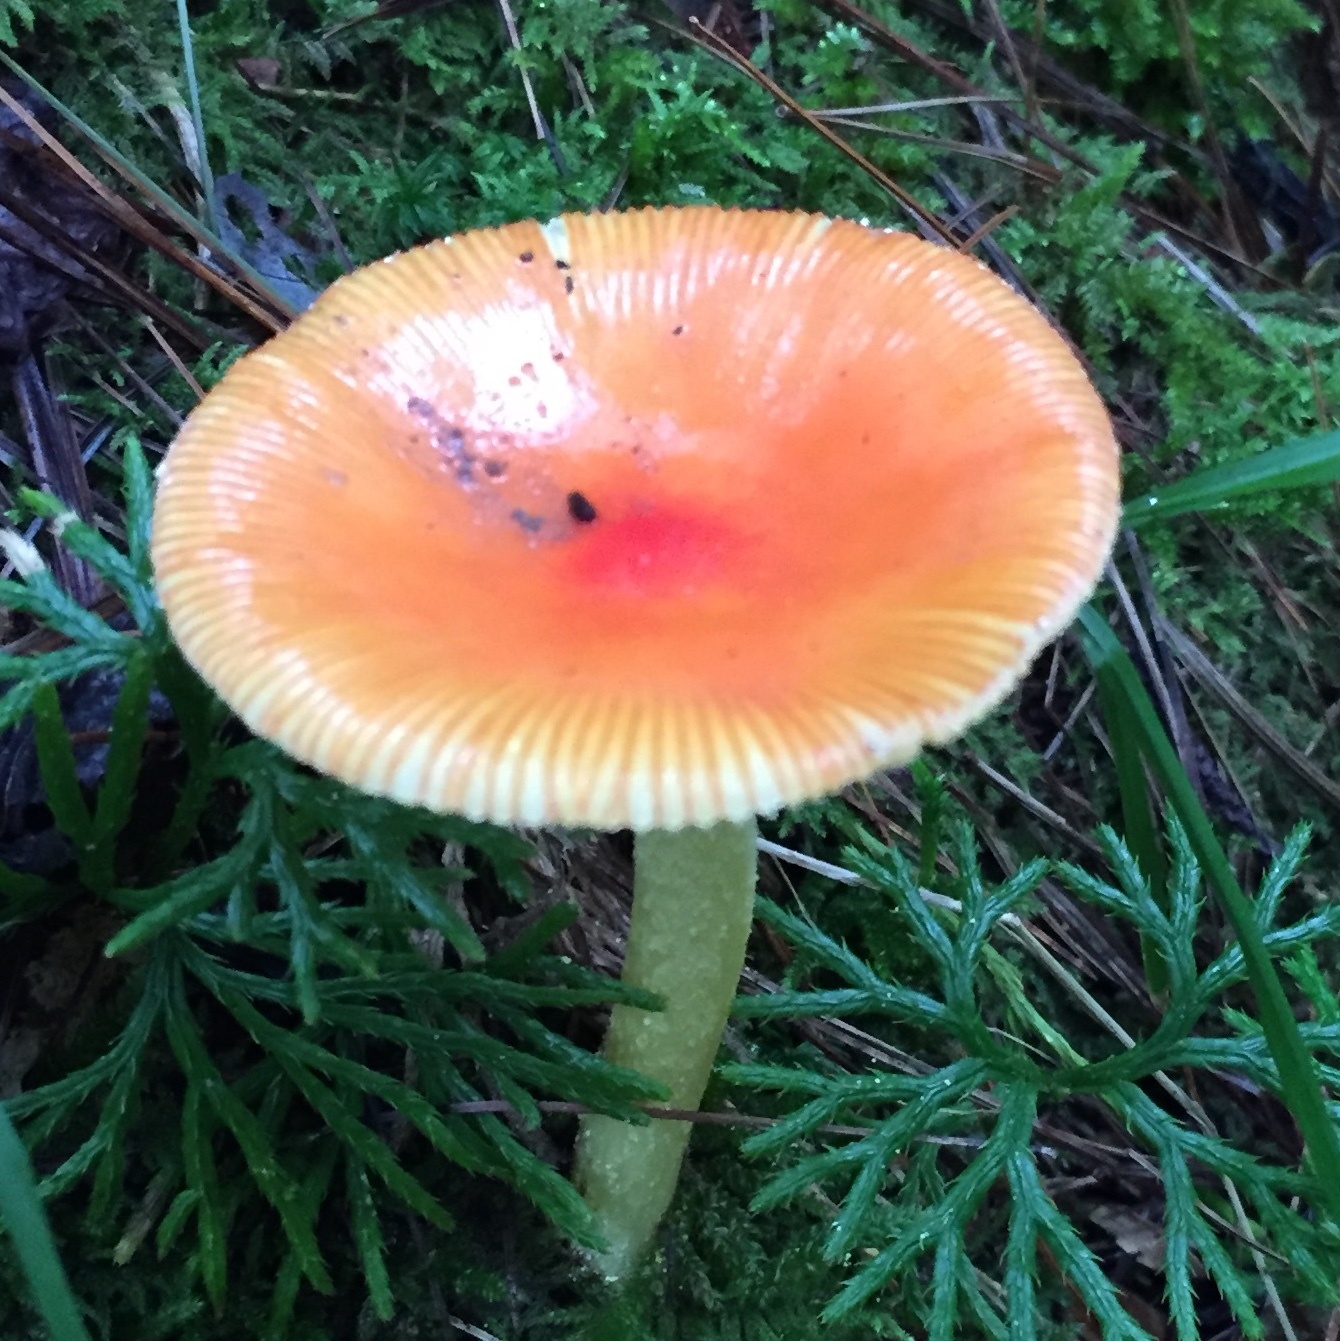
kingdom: Fungi
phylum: Basidiomycota
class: Agaricomycetes
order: Agaricales
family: Amanitaceae
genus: Amanita
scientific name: Amanita parcivolvata
